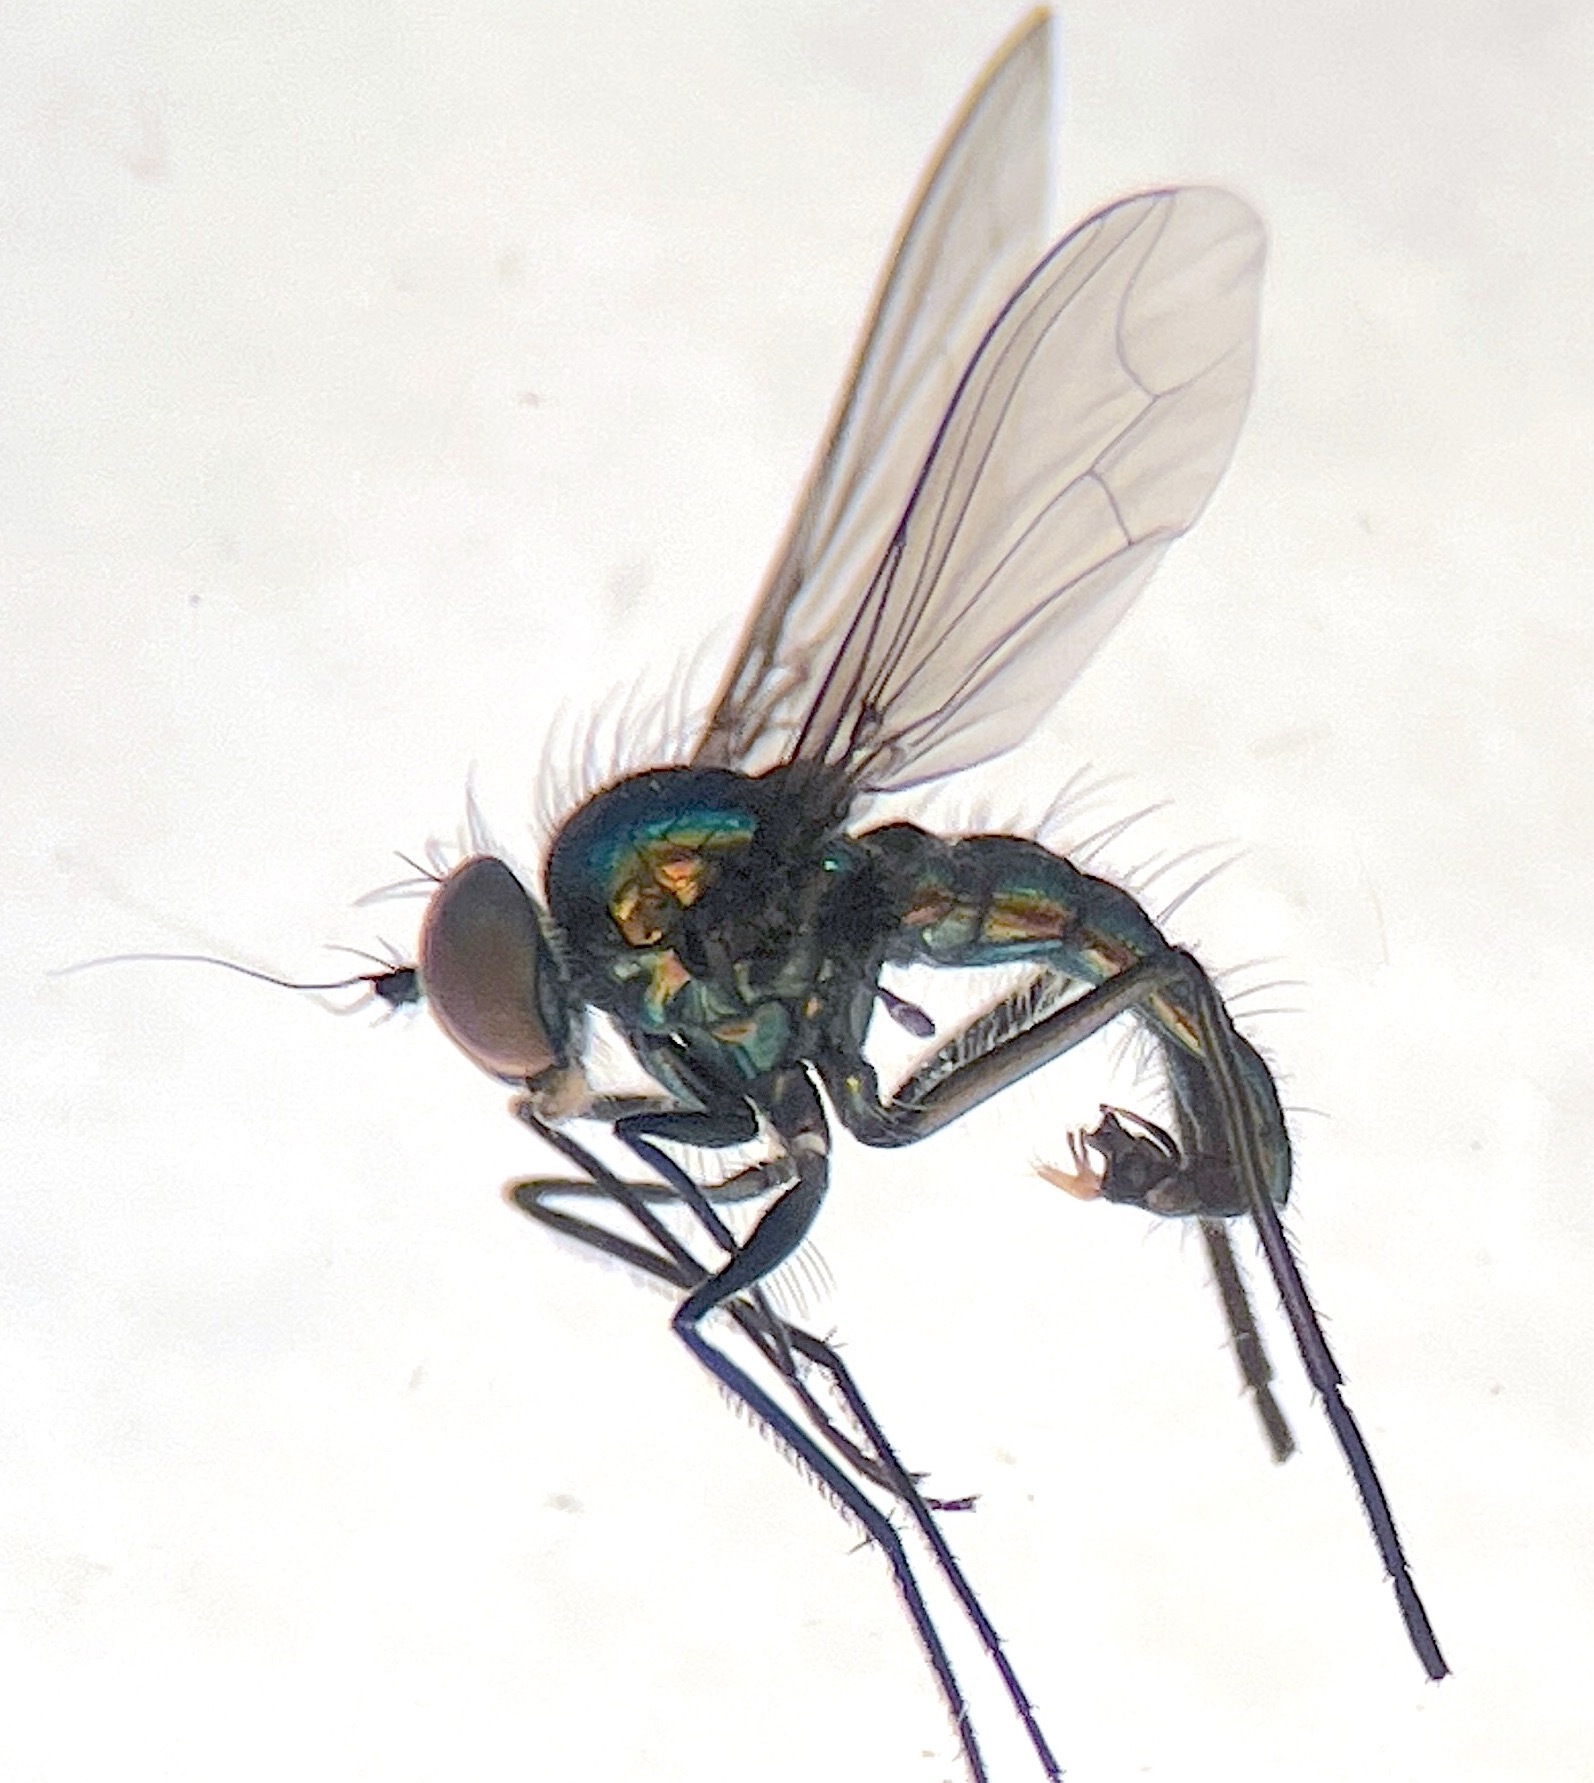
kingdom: Animalia
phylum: Arthropoda
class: Insecta
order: Diptera
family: Dolichopodidae
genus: Parentia
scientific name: Parentia malitiosa
